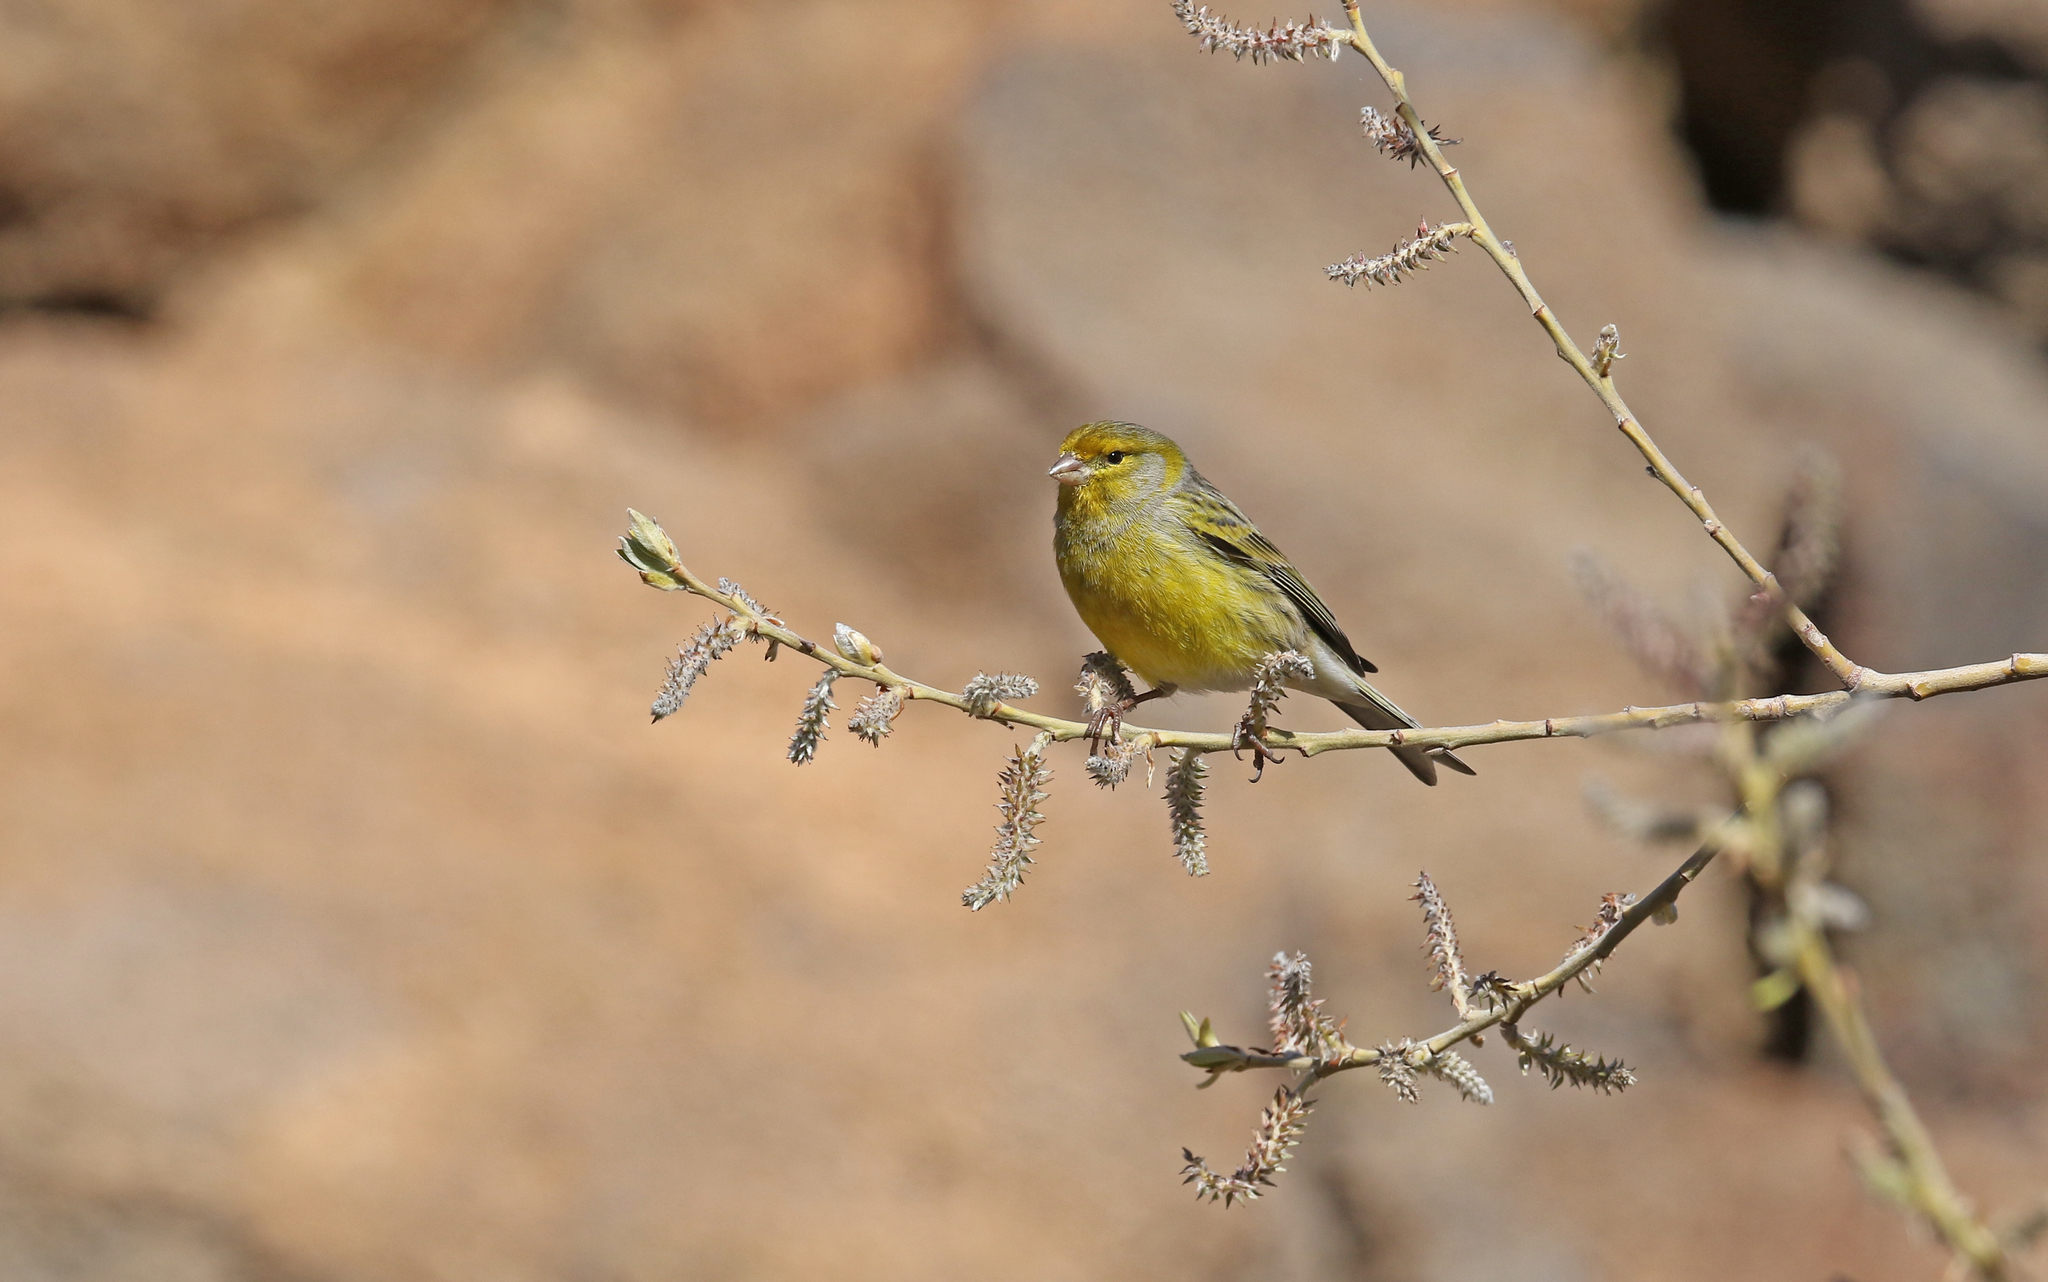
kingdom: Animalia
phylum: Chordata
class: Aves
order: Passeriformes
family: Fringillidae
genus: Serinus
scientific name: Serinus canaria
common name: Atlantic canary
